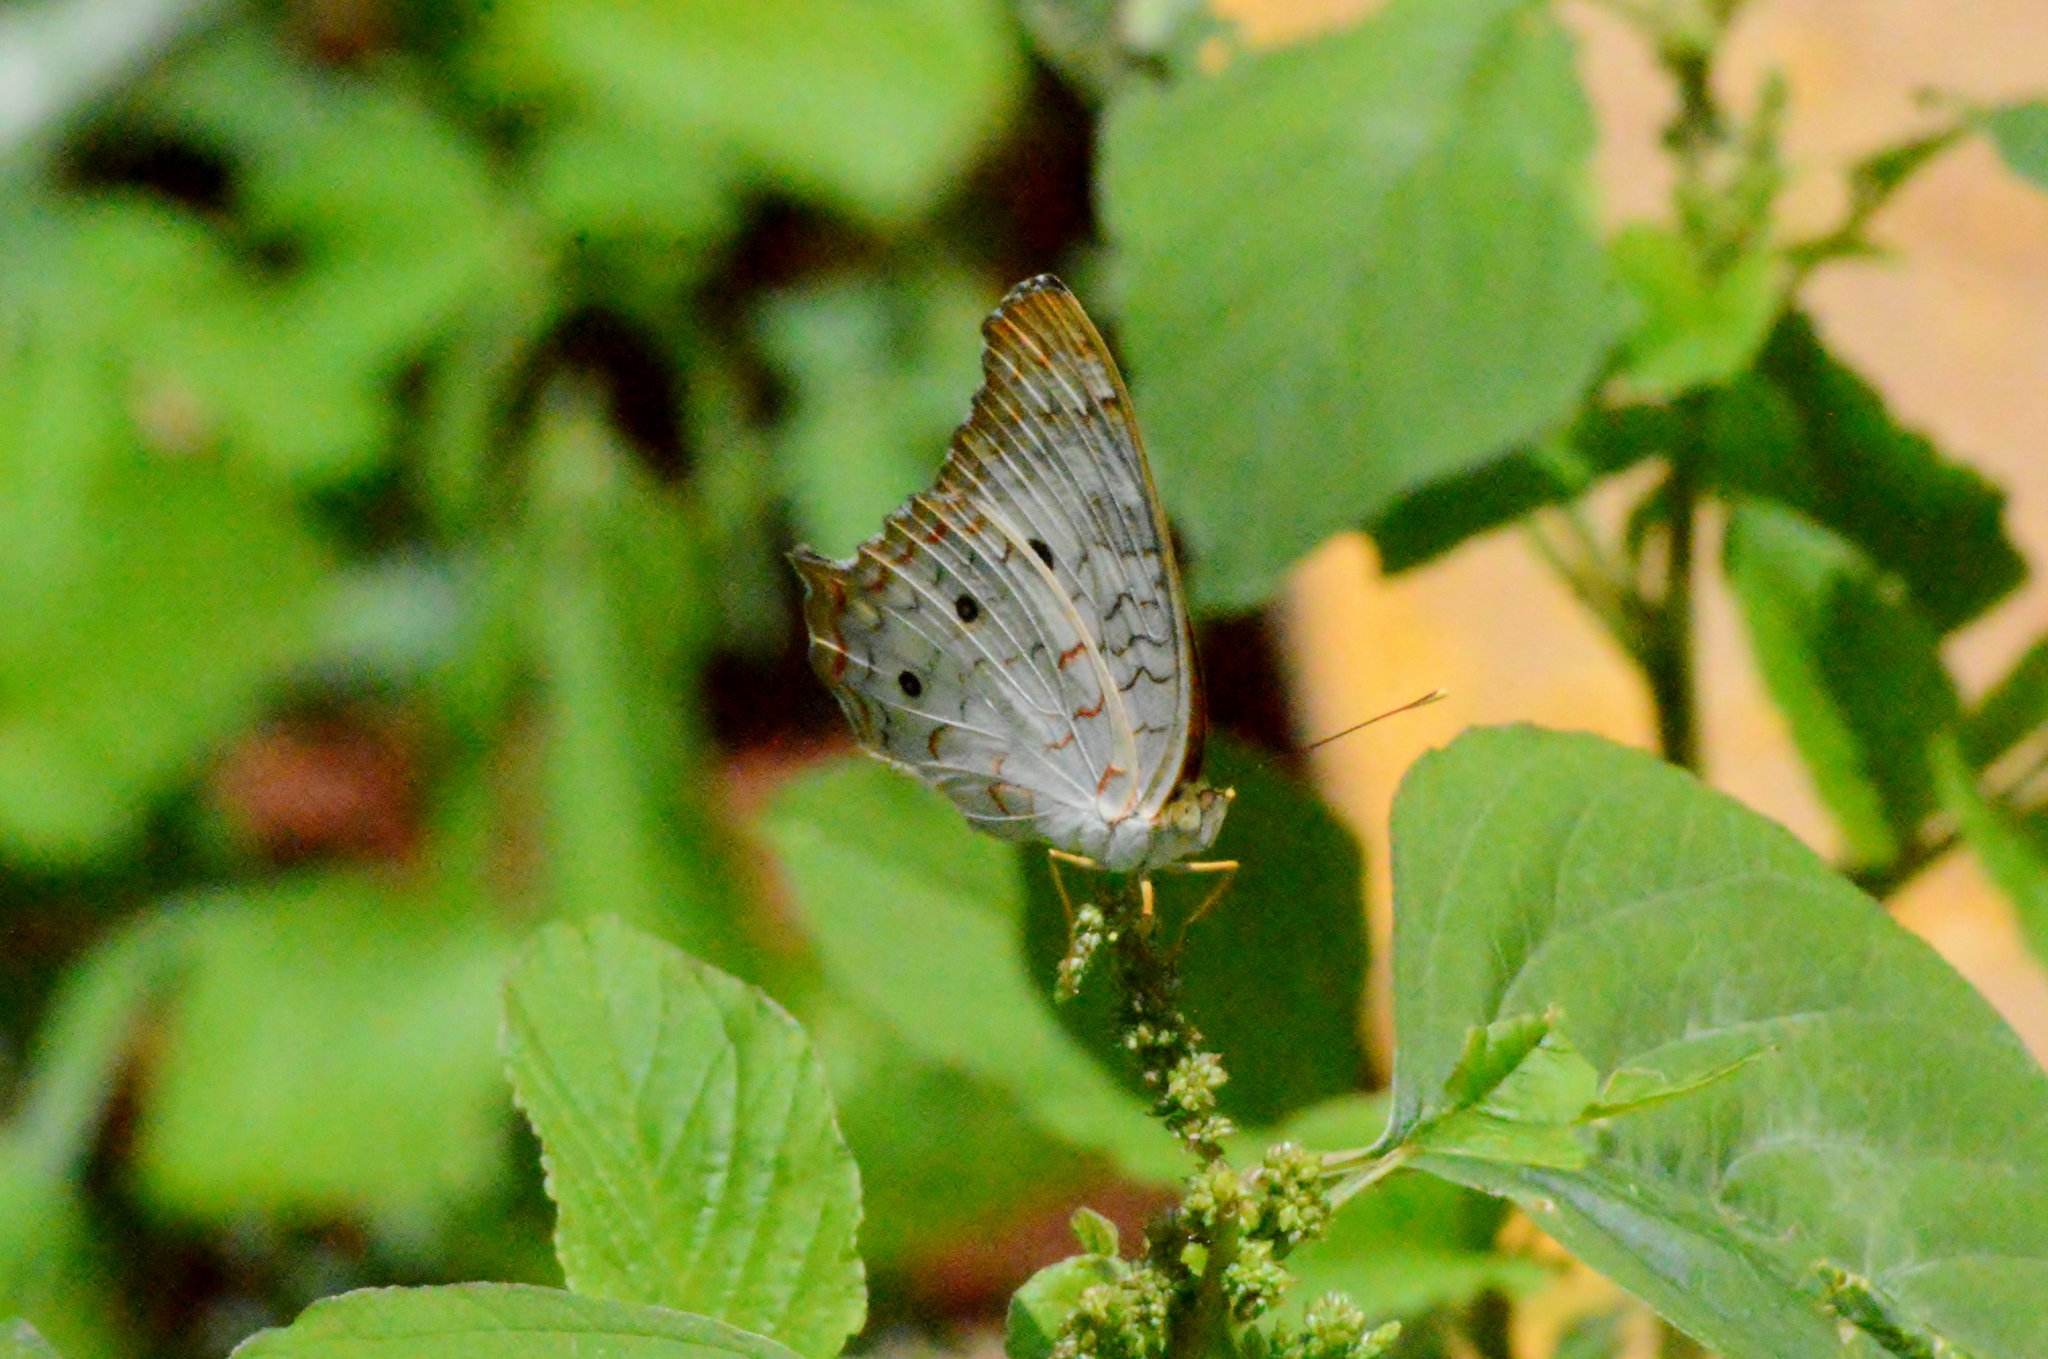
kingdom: Animalia
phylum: Arthropoda
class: Insecta
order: Lepidoptera
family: Nymphalidae
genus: Anartia
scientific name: Anartia jatrophae
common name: White peacock
